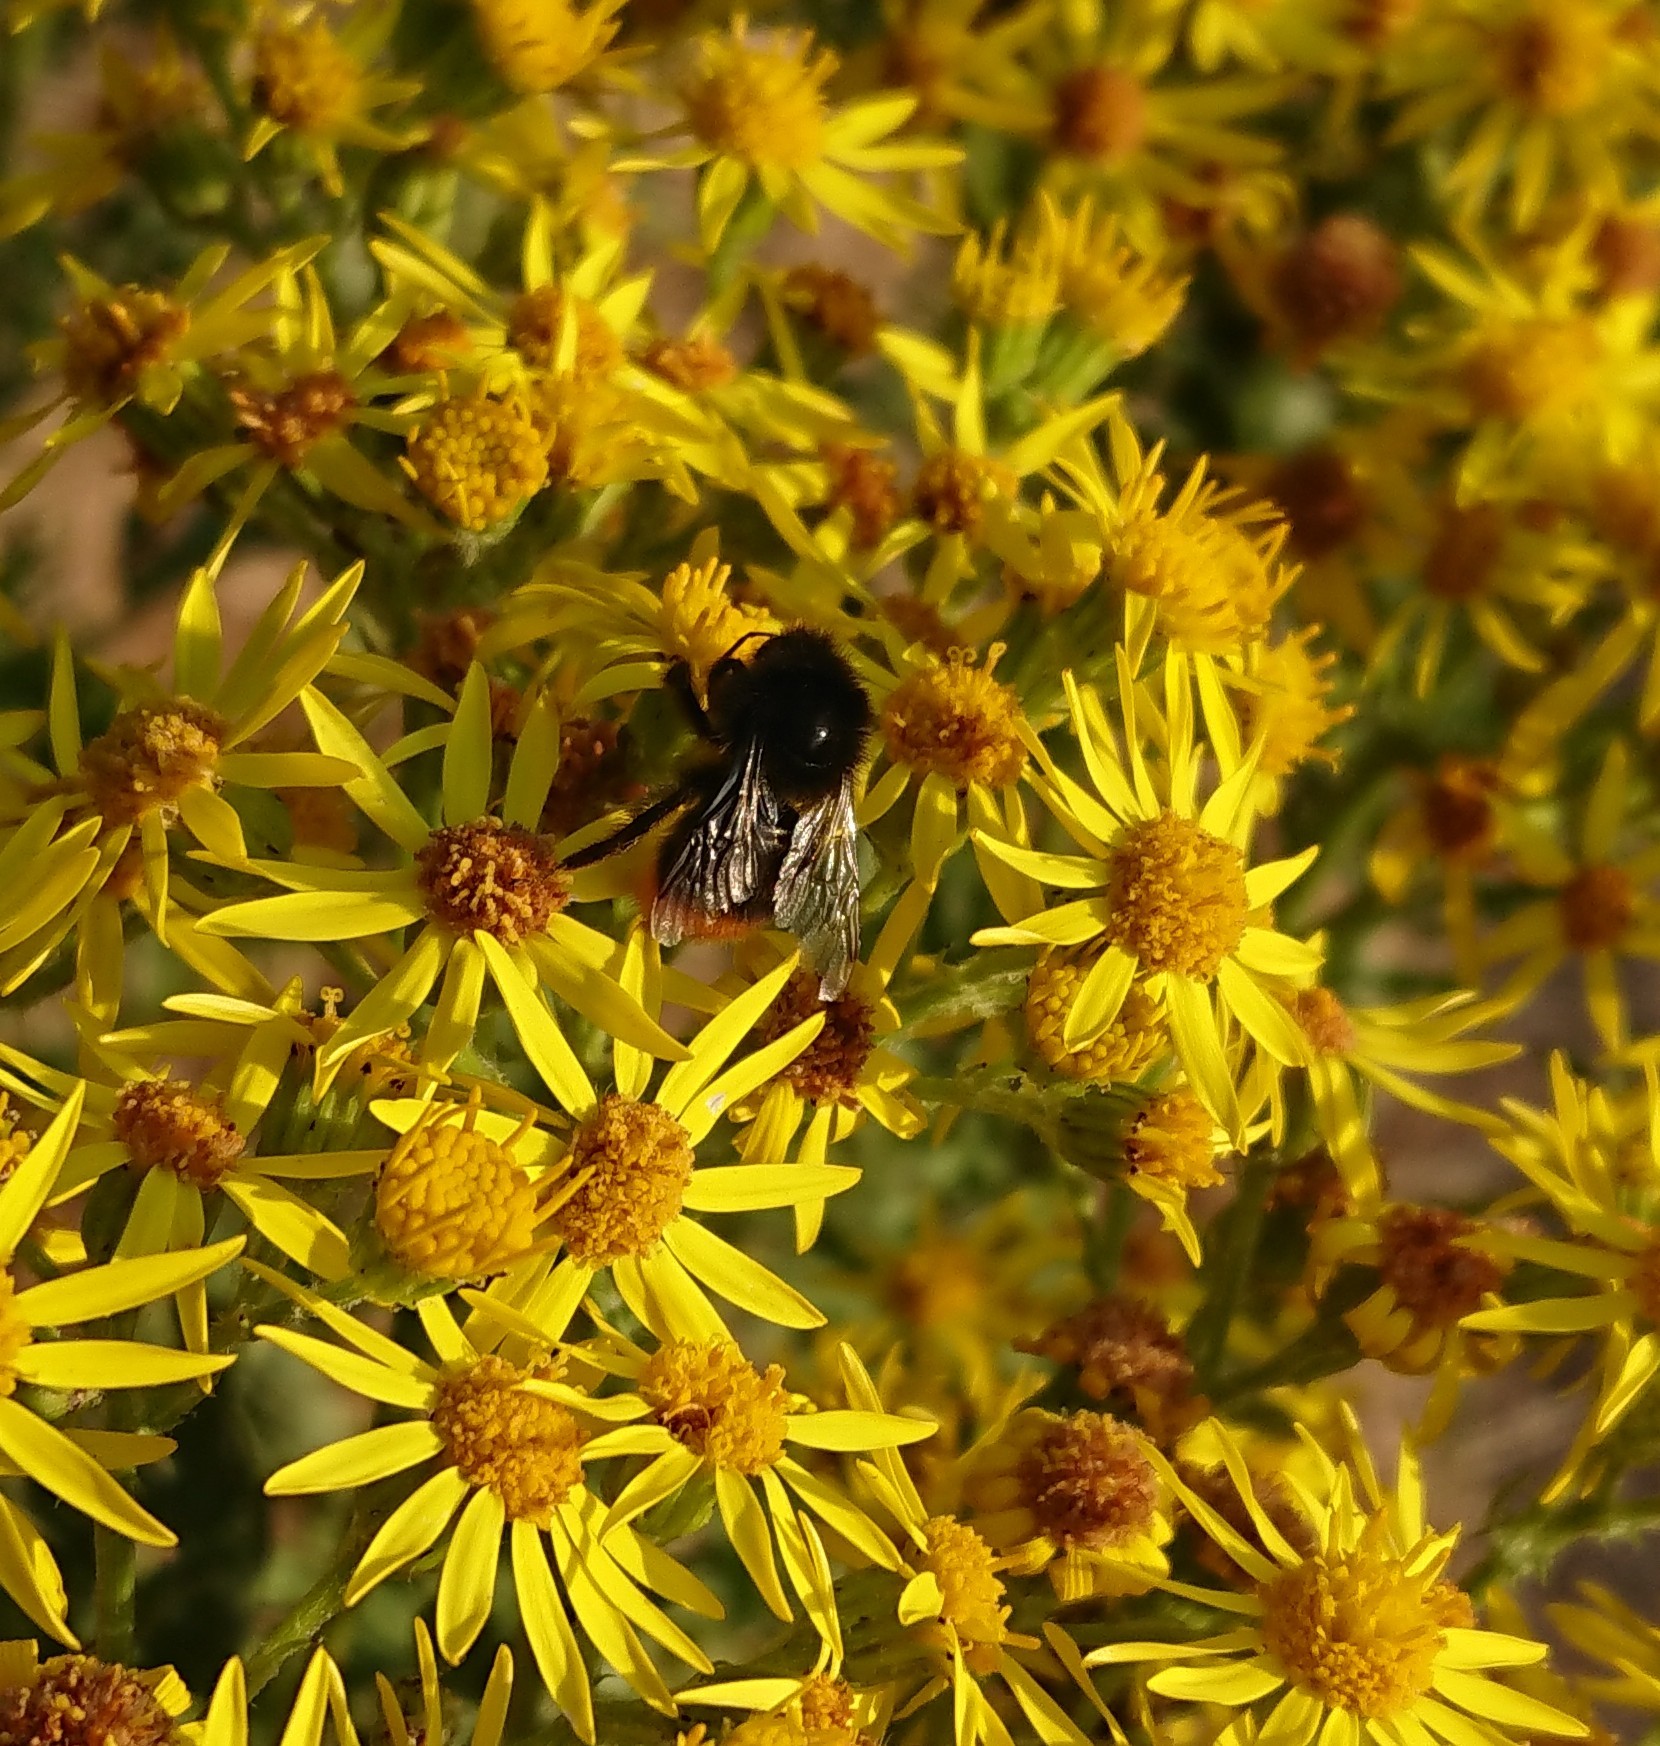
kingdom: Animalia
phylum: Arthropoda
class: Insecta
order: Hymenoptera
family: Apidae
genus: Bombus
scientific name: Bombus lapidarius
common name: Large red-tailed humble-bee
